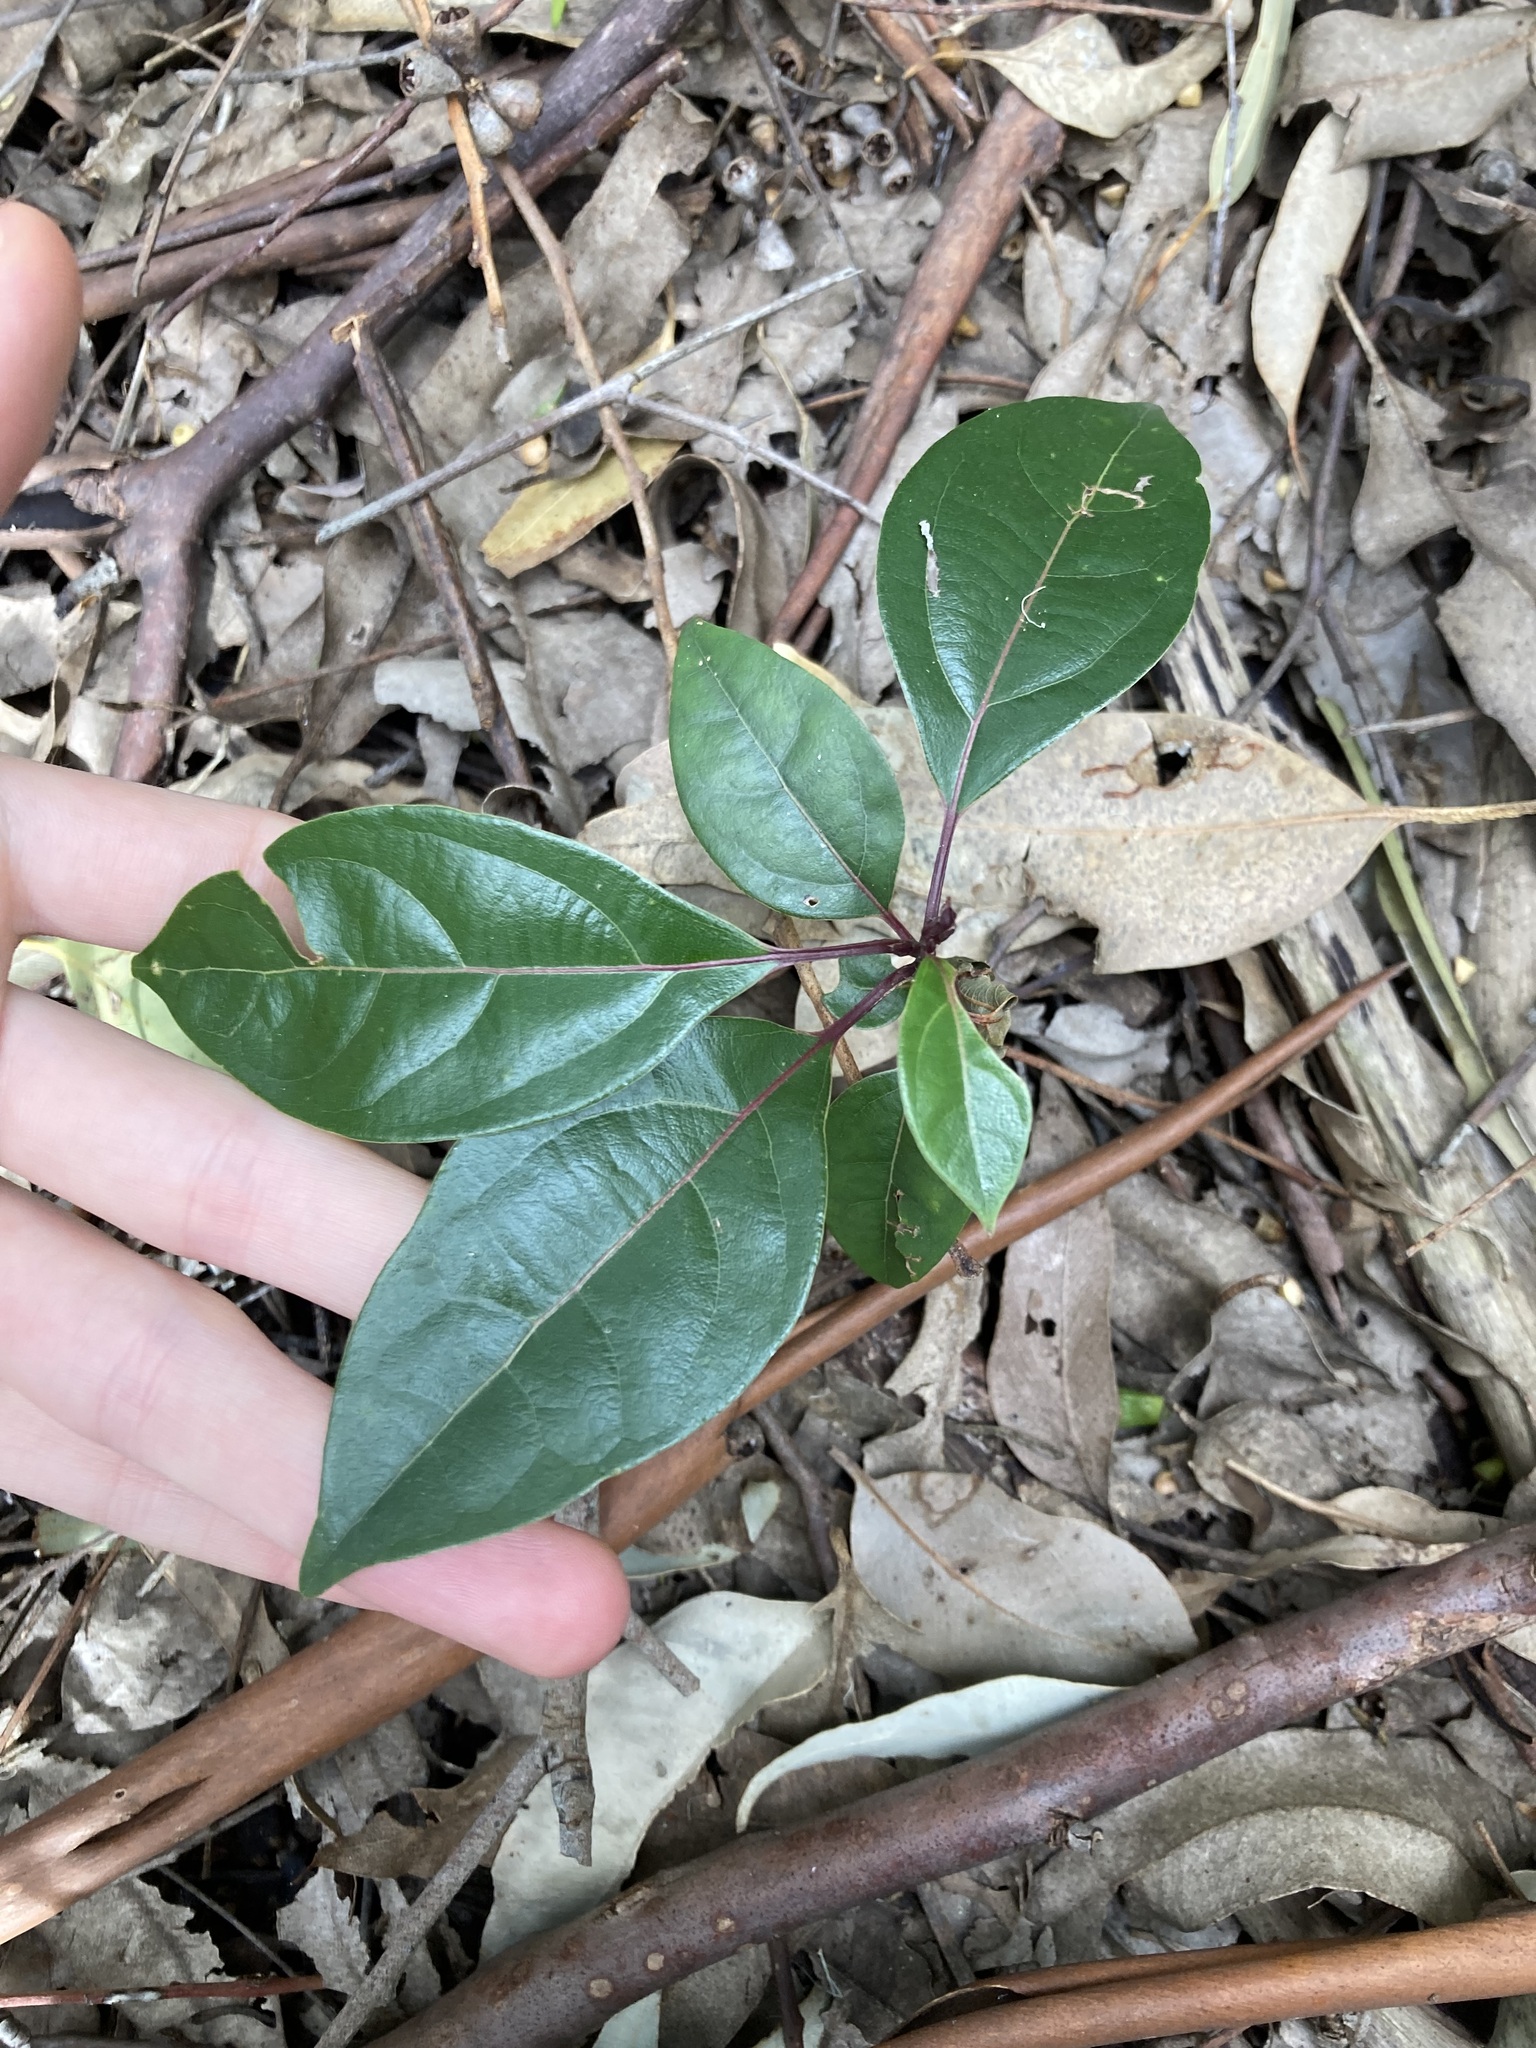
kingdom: Plantae
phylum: Tracheophyta
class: Magnoliopsida
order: Laurales
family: Lauraceae
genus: Cinnamomum
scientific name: Cinnamomum camphora
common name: Camphortree
